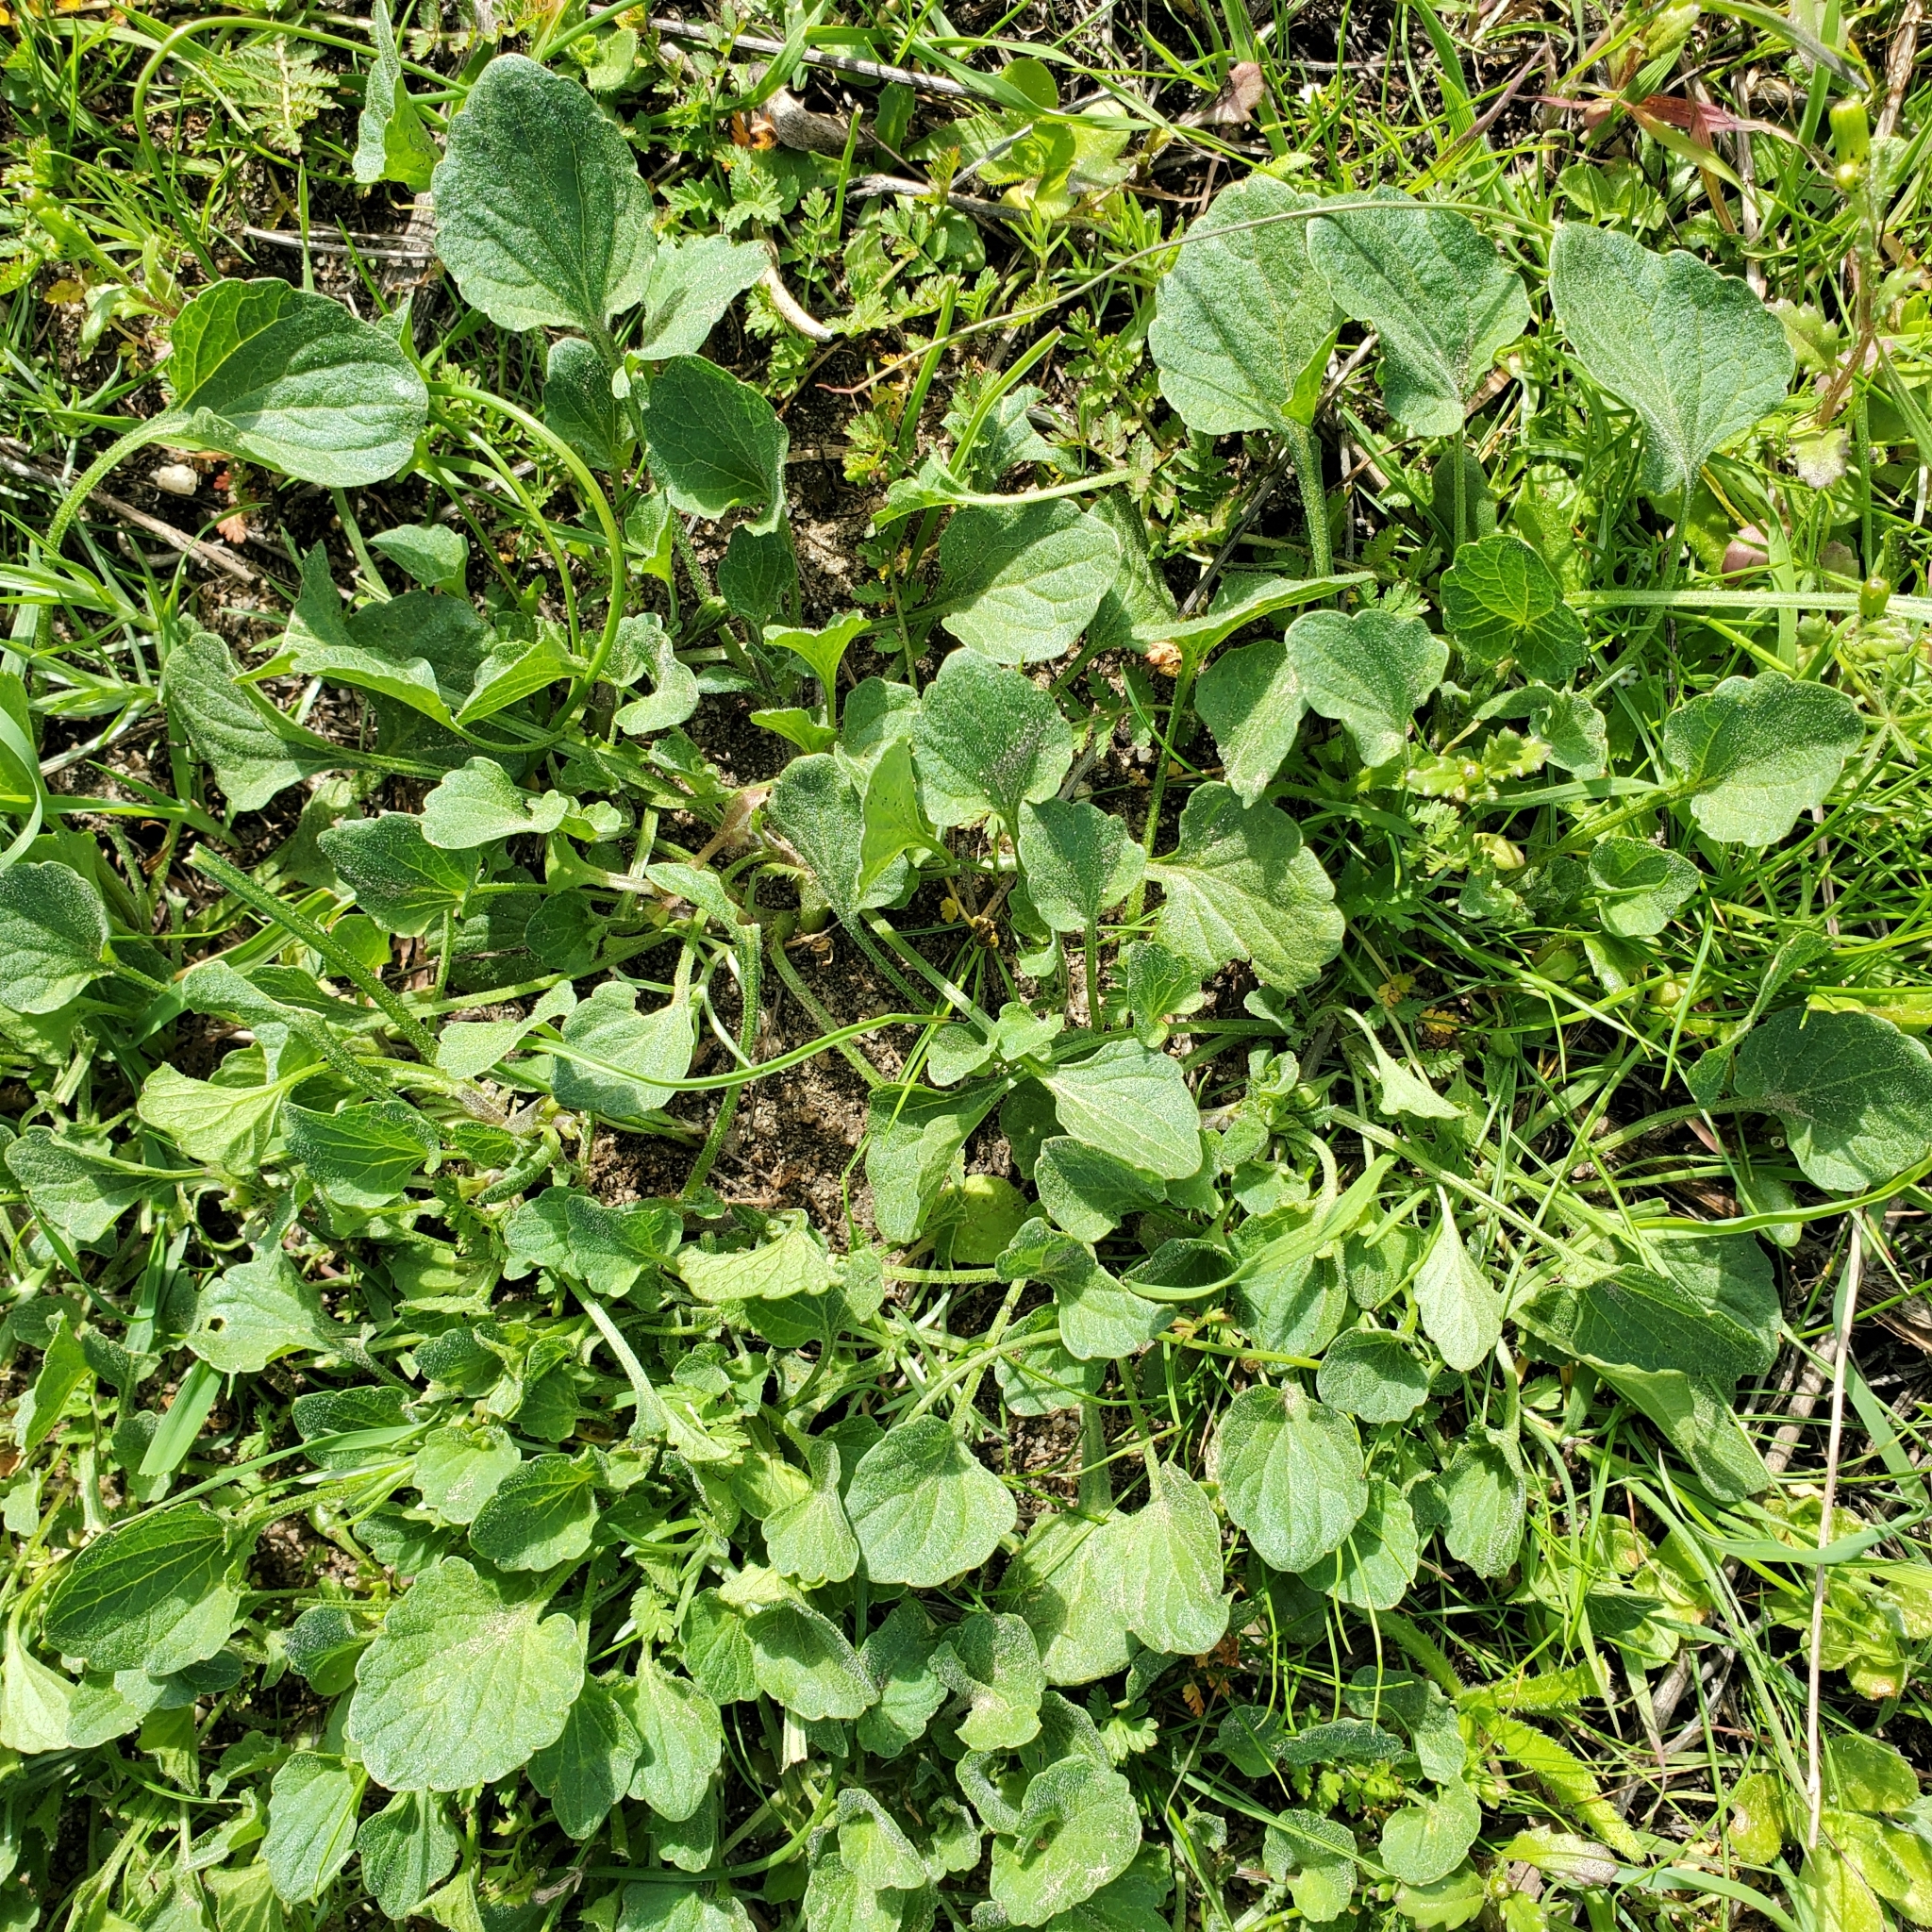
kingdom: Plantae
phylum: Tracheophyta
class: Magnoliopsida
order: Malpighiales
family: Violaceae
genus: Viola
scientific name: Viola pedunculata
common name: California golden violet
